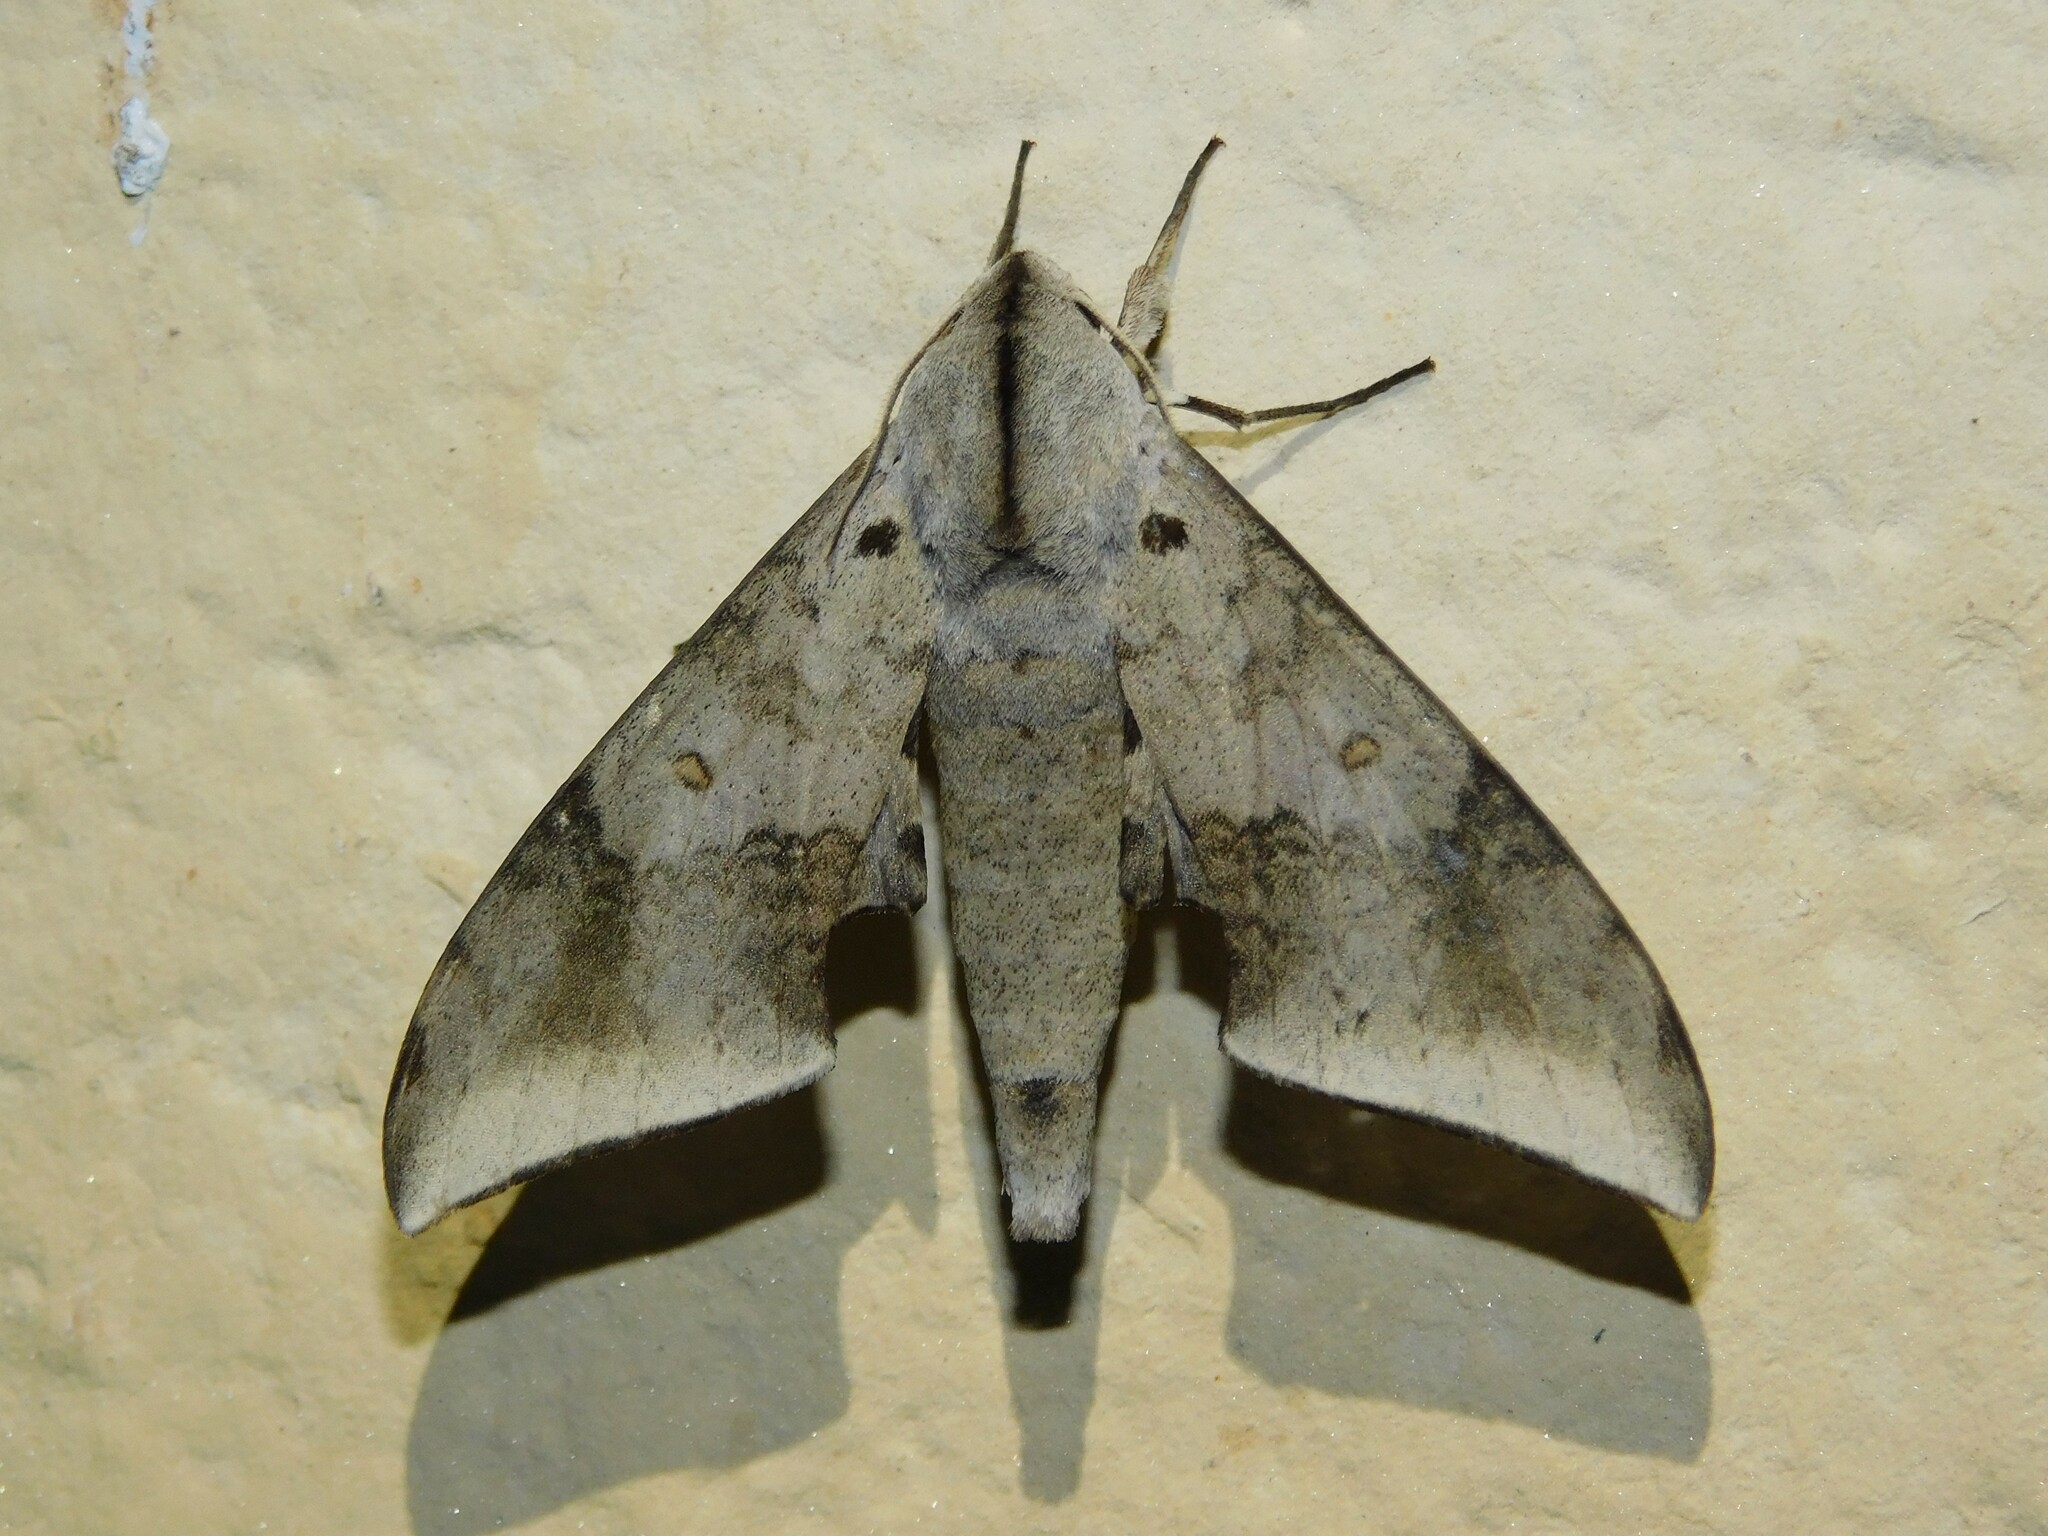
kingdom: Animalia
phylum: Arthropoda
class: Insecta
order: Lepidoptera
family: Sphingidae
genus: Polyptychus
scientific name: Polyptychus retusus
